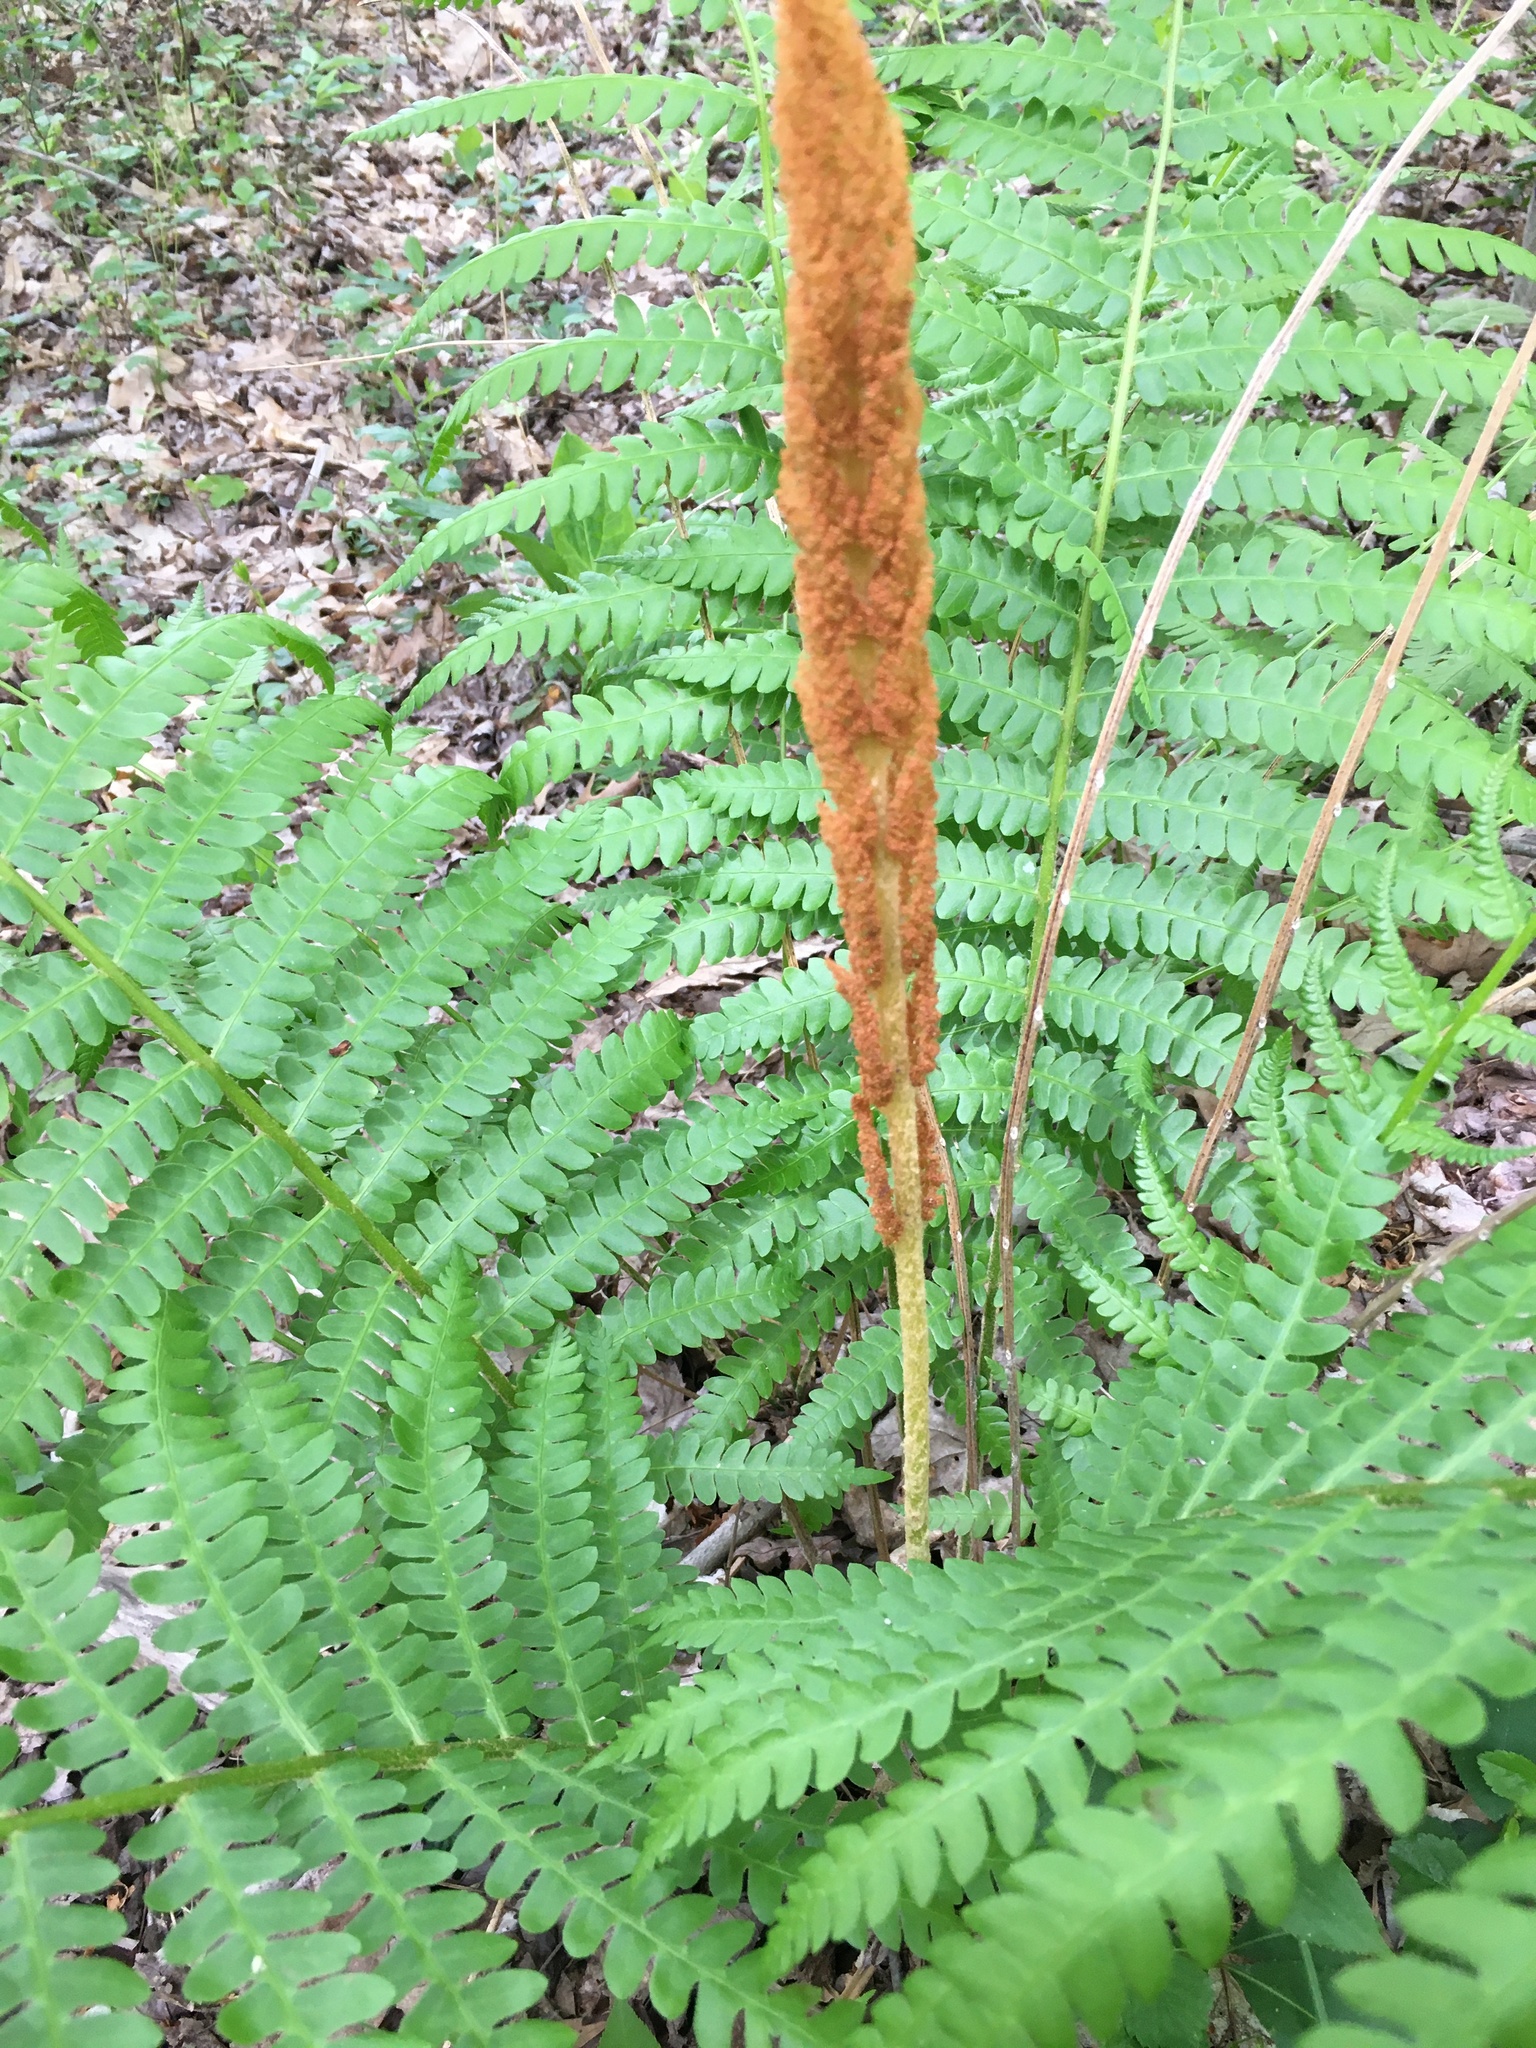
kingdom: Plantae
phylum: Tracheophyta
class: Polypodiopsida
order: Osmundales
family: Osmundaceae
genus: Osmundastrum
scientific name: Osmundastrum cinnamomeum
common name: Cinnamon fern
